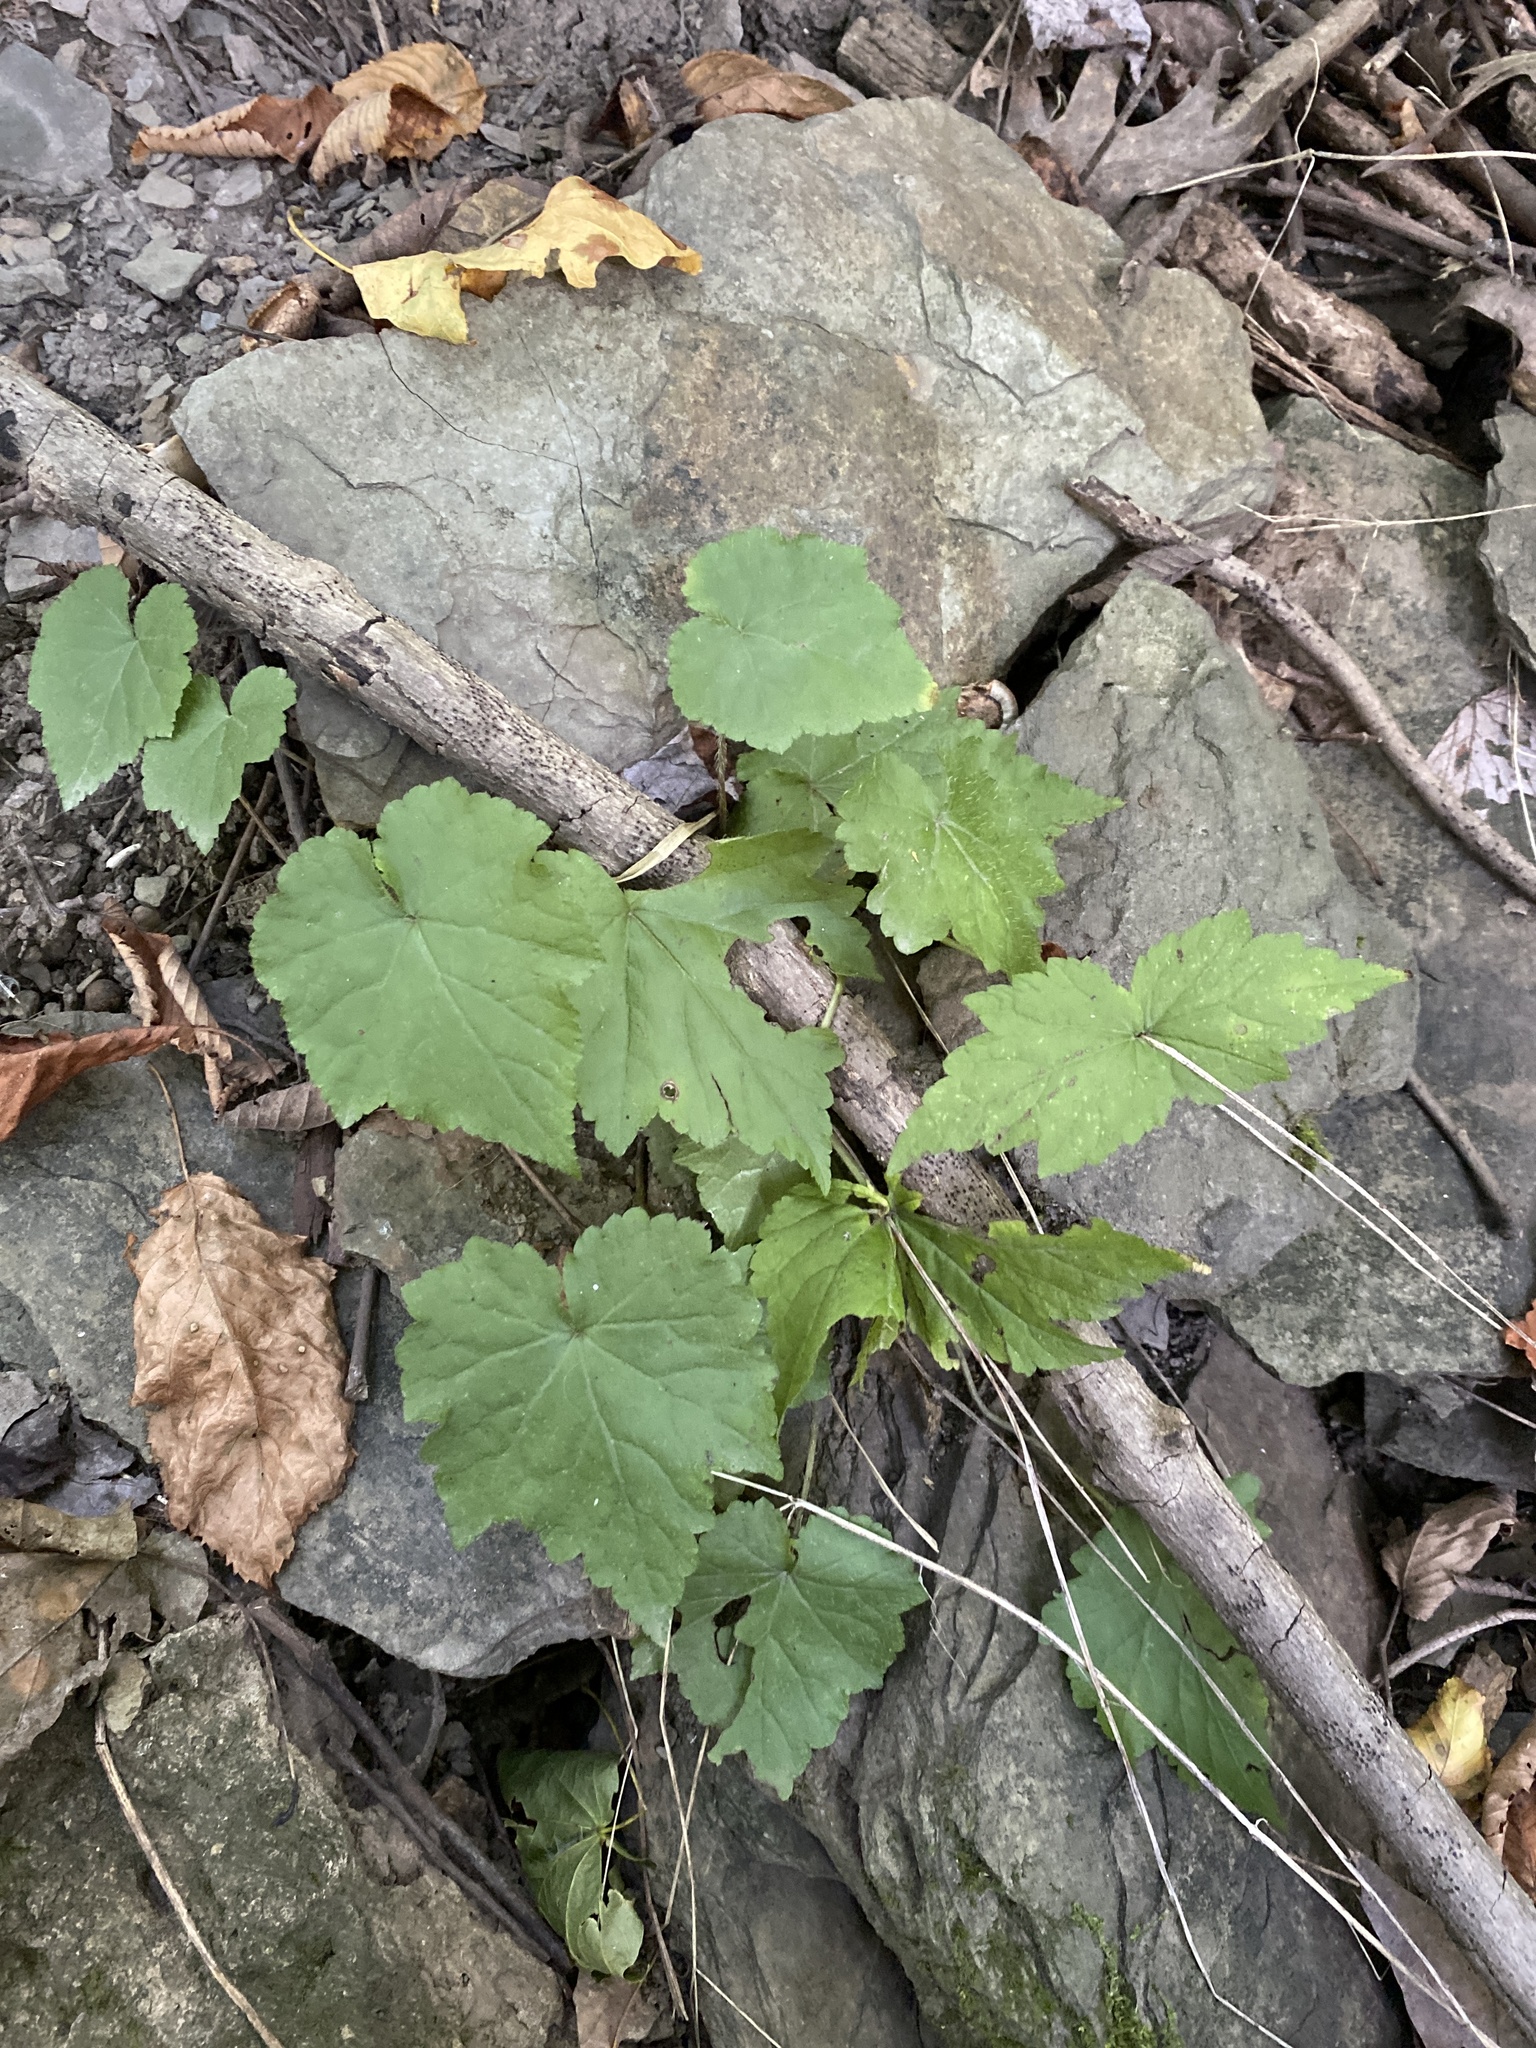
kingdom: Plantae
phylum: Tracheophyta
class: Magnoliopsida
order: Saxifragales
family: Saxifragaceae
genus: Mitella
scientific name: Mitella diphylla
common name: Coolwort
